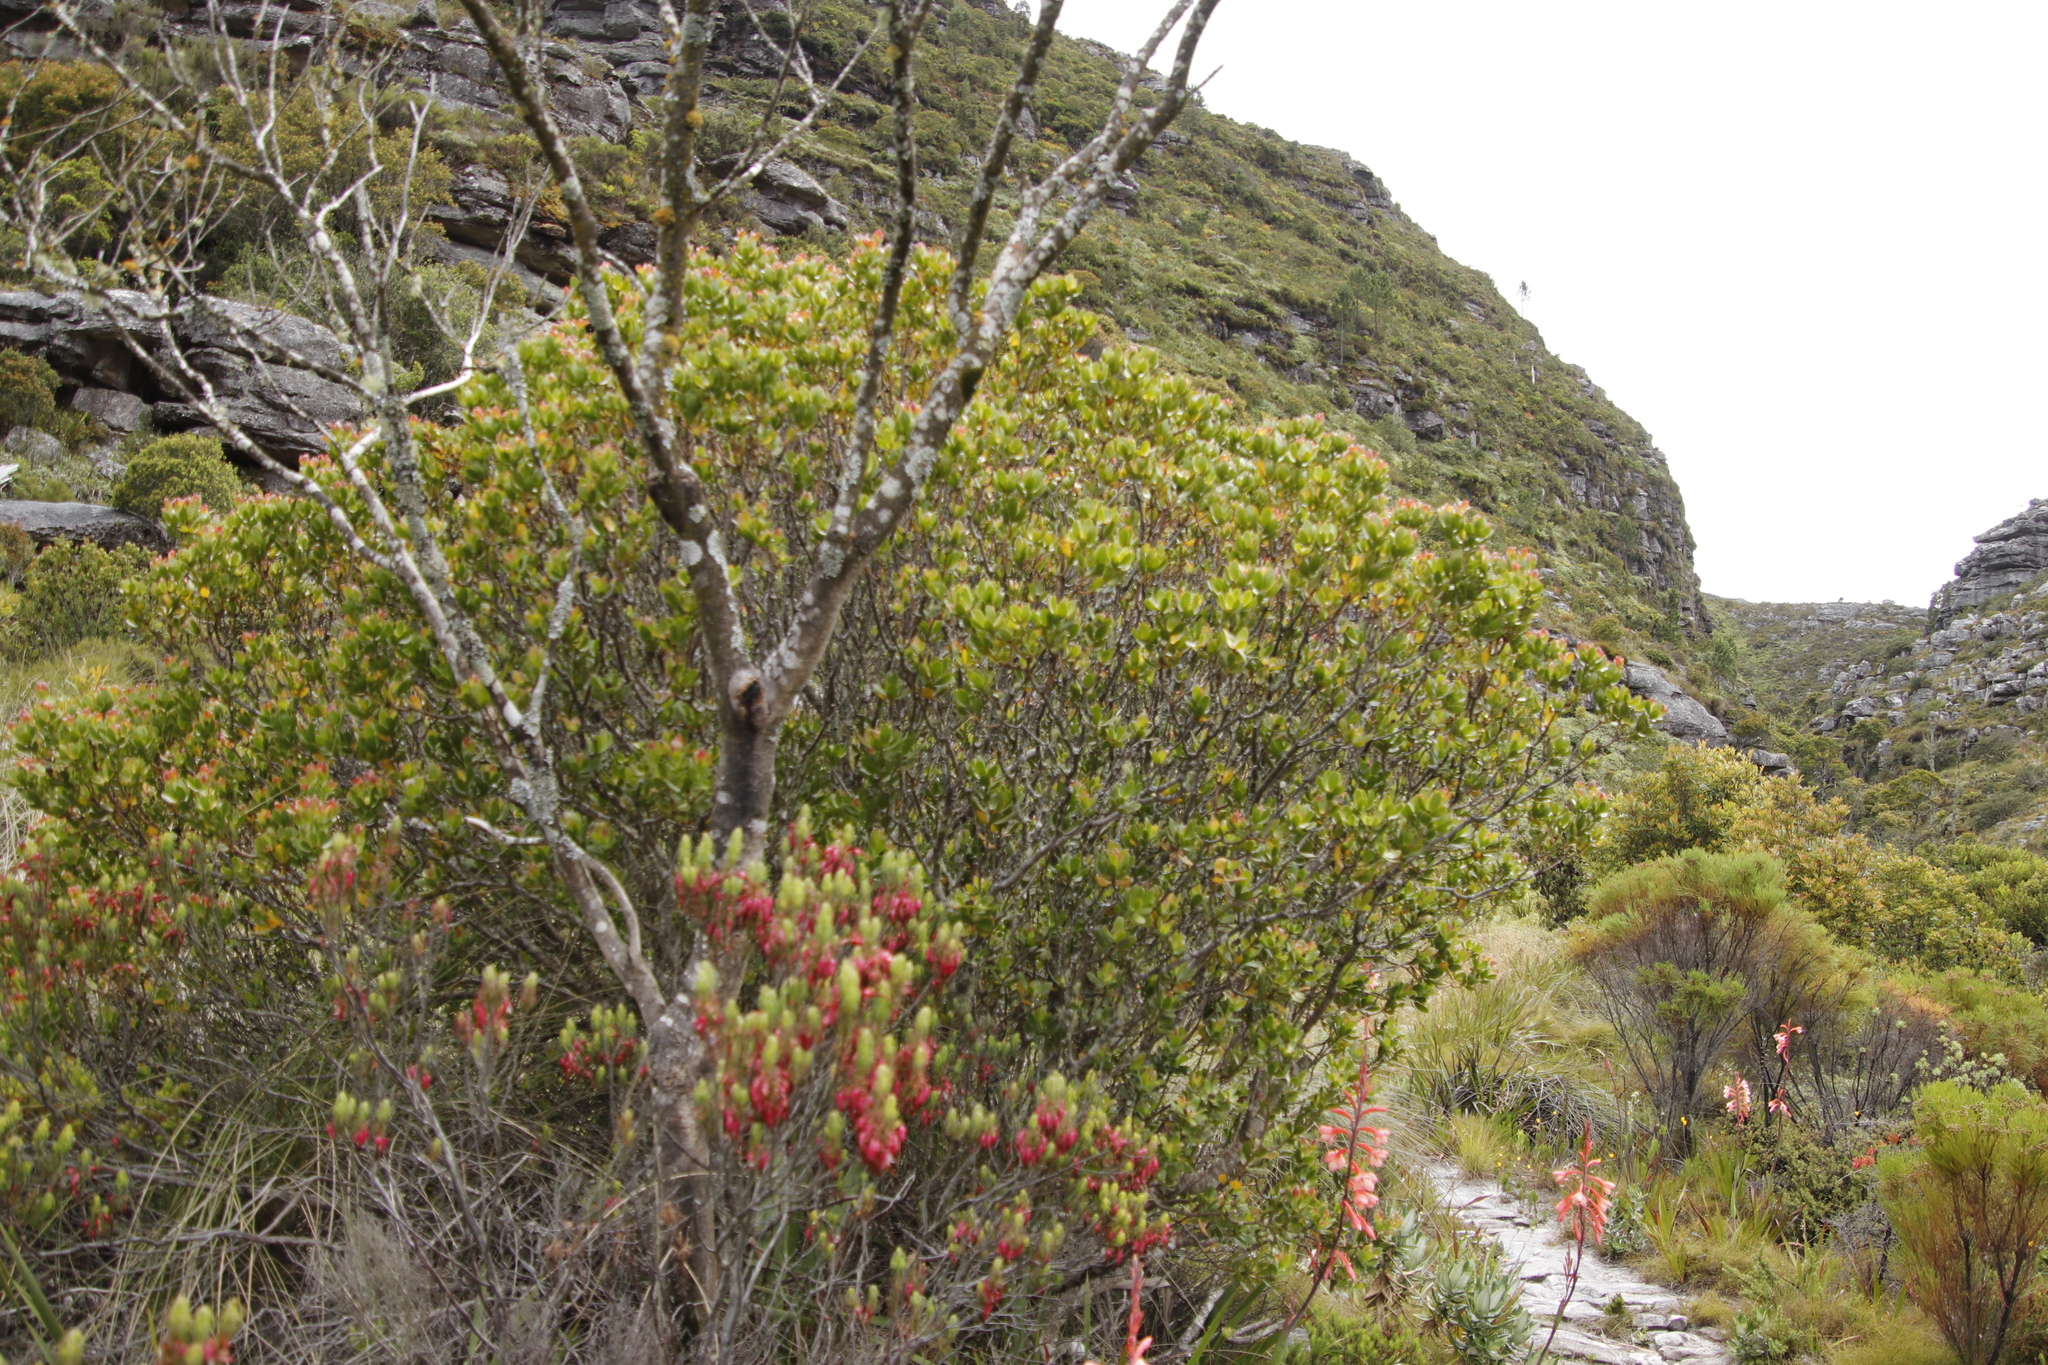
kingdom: Plantae
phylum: Tracheophyta
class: Magnoliopsida
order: Proteales
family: Proteaceae
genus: Leucadendron
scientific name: Leucadendron strobilinum
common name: Mountain rose
